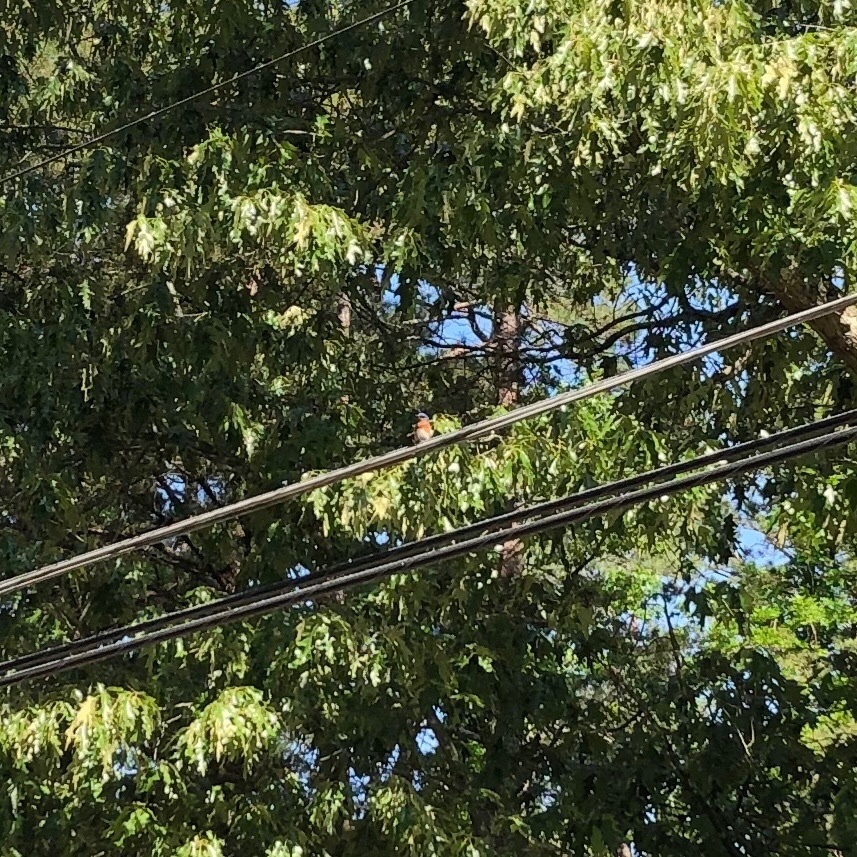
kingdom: Animalia
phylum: Chordata
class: Aves
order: Passeriformes
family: Turdidae
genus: Sialia
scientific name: Sialia sialis
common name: Eastern bluebird
